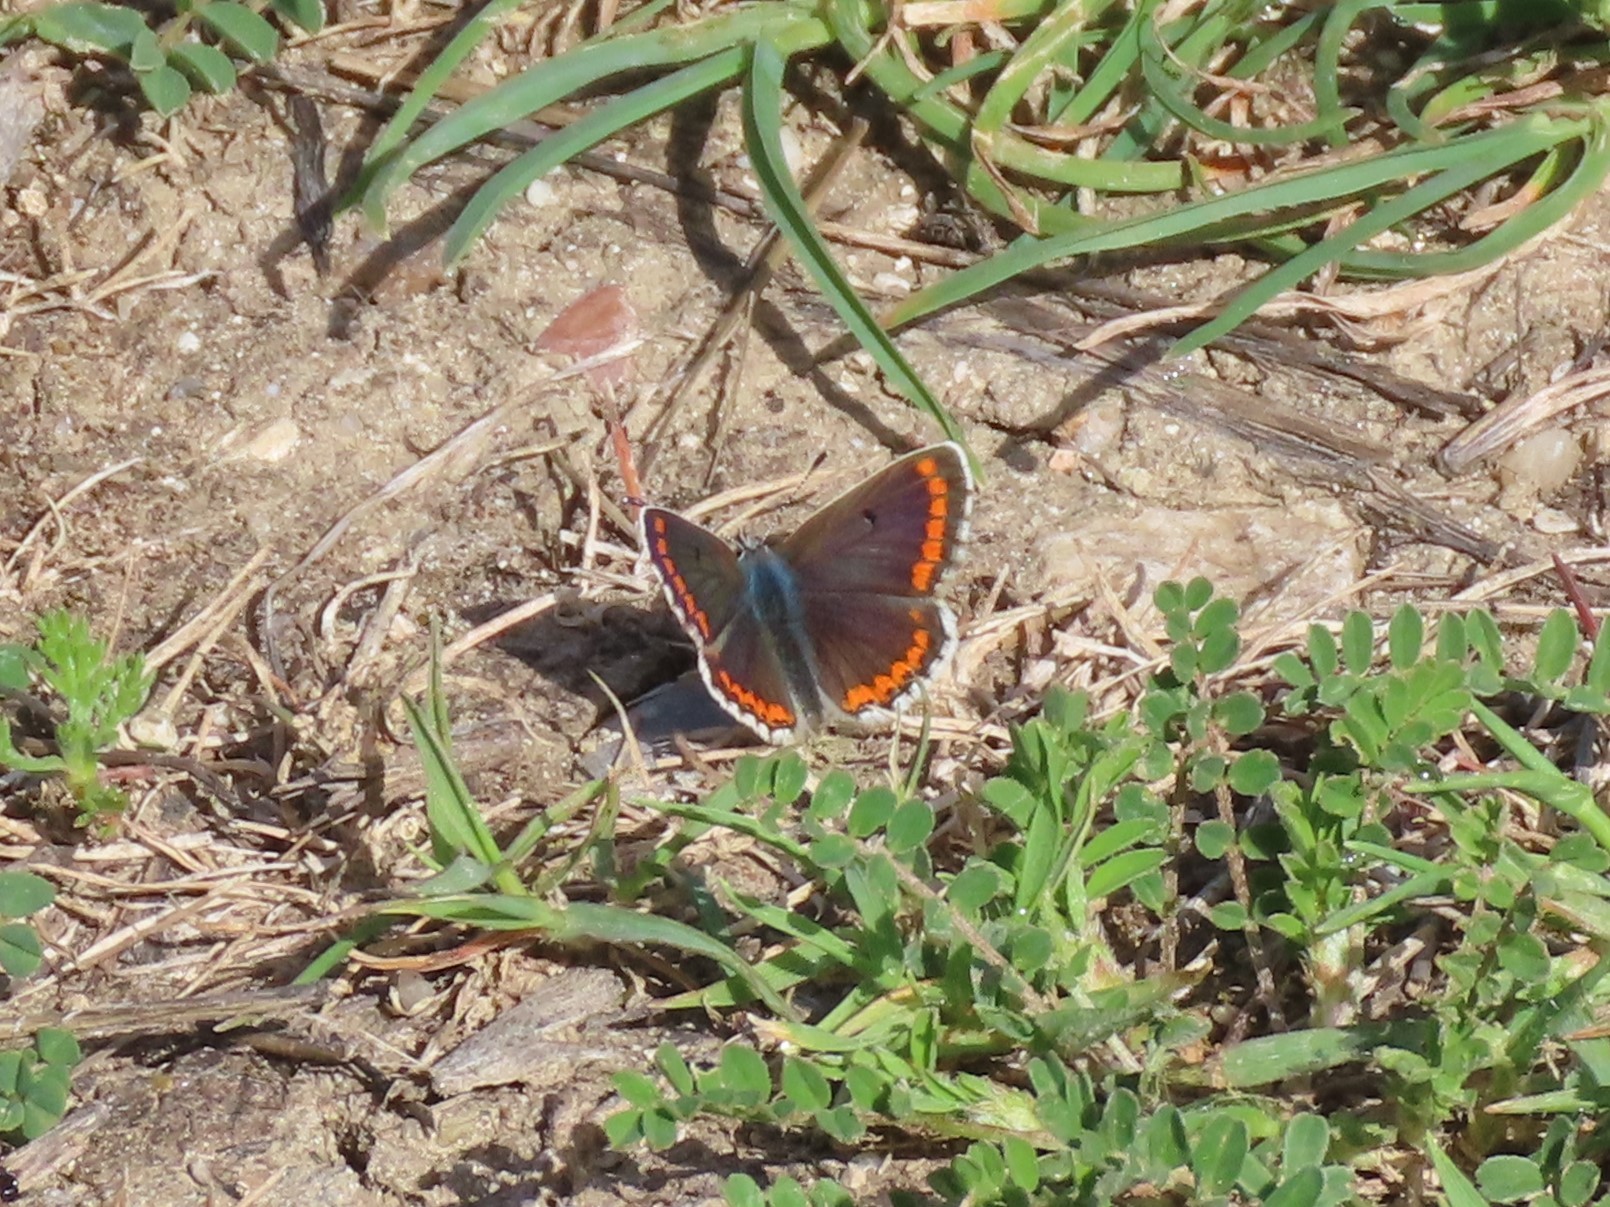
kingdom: Animalia
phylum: Arthropoda
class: Insecta
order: Lepidoptera
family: Lycaenidae
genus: Aricia
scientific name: Aricia cramera
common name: Eschscholtz´s brown  argus
